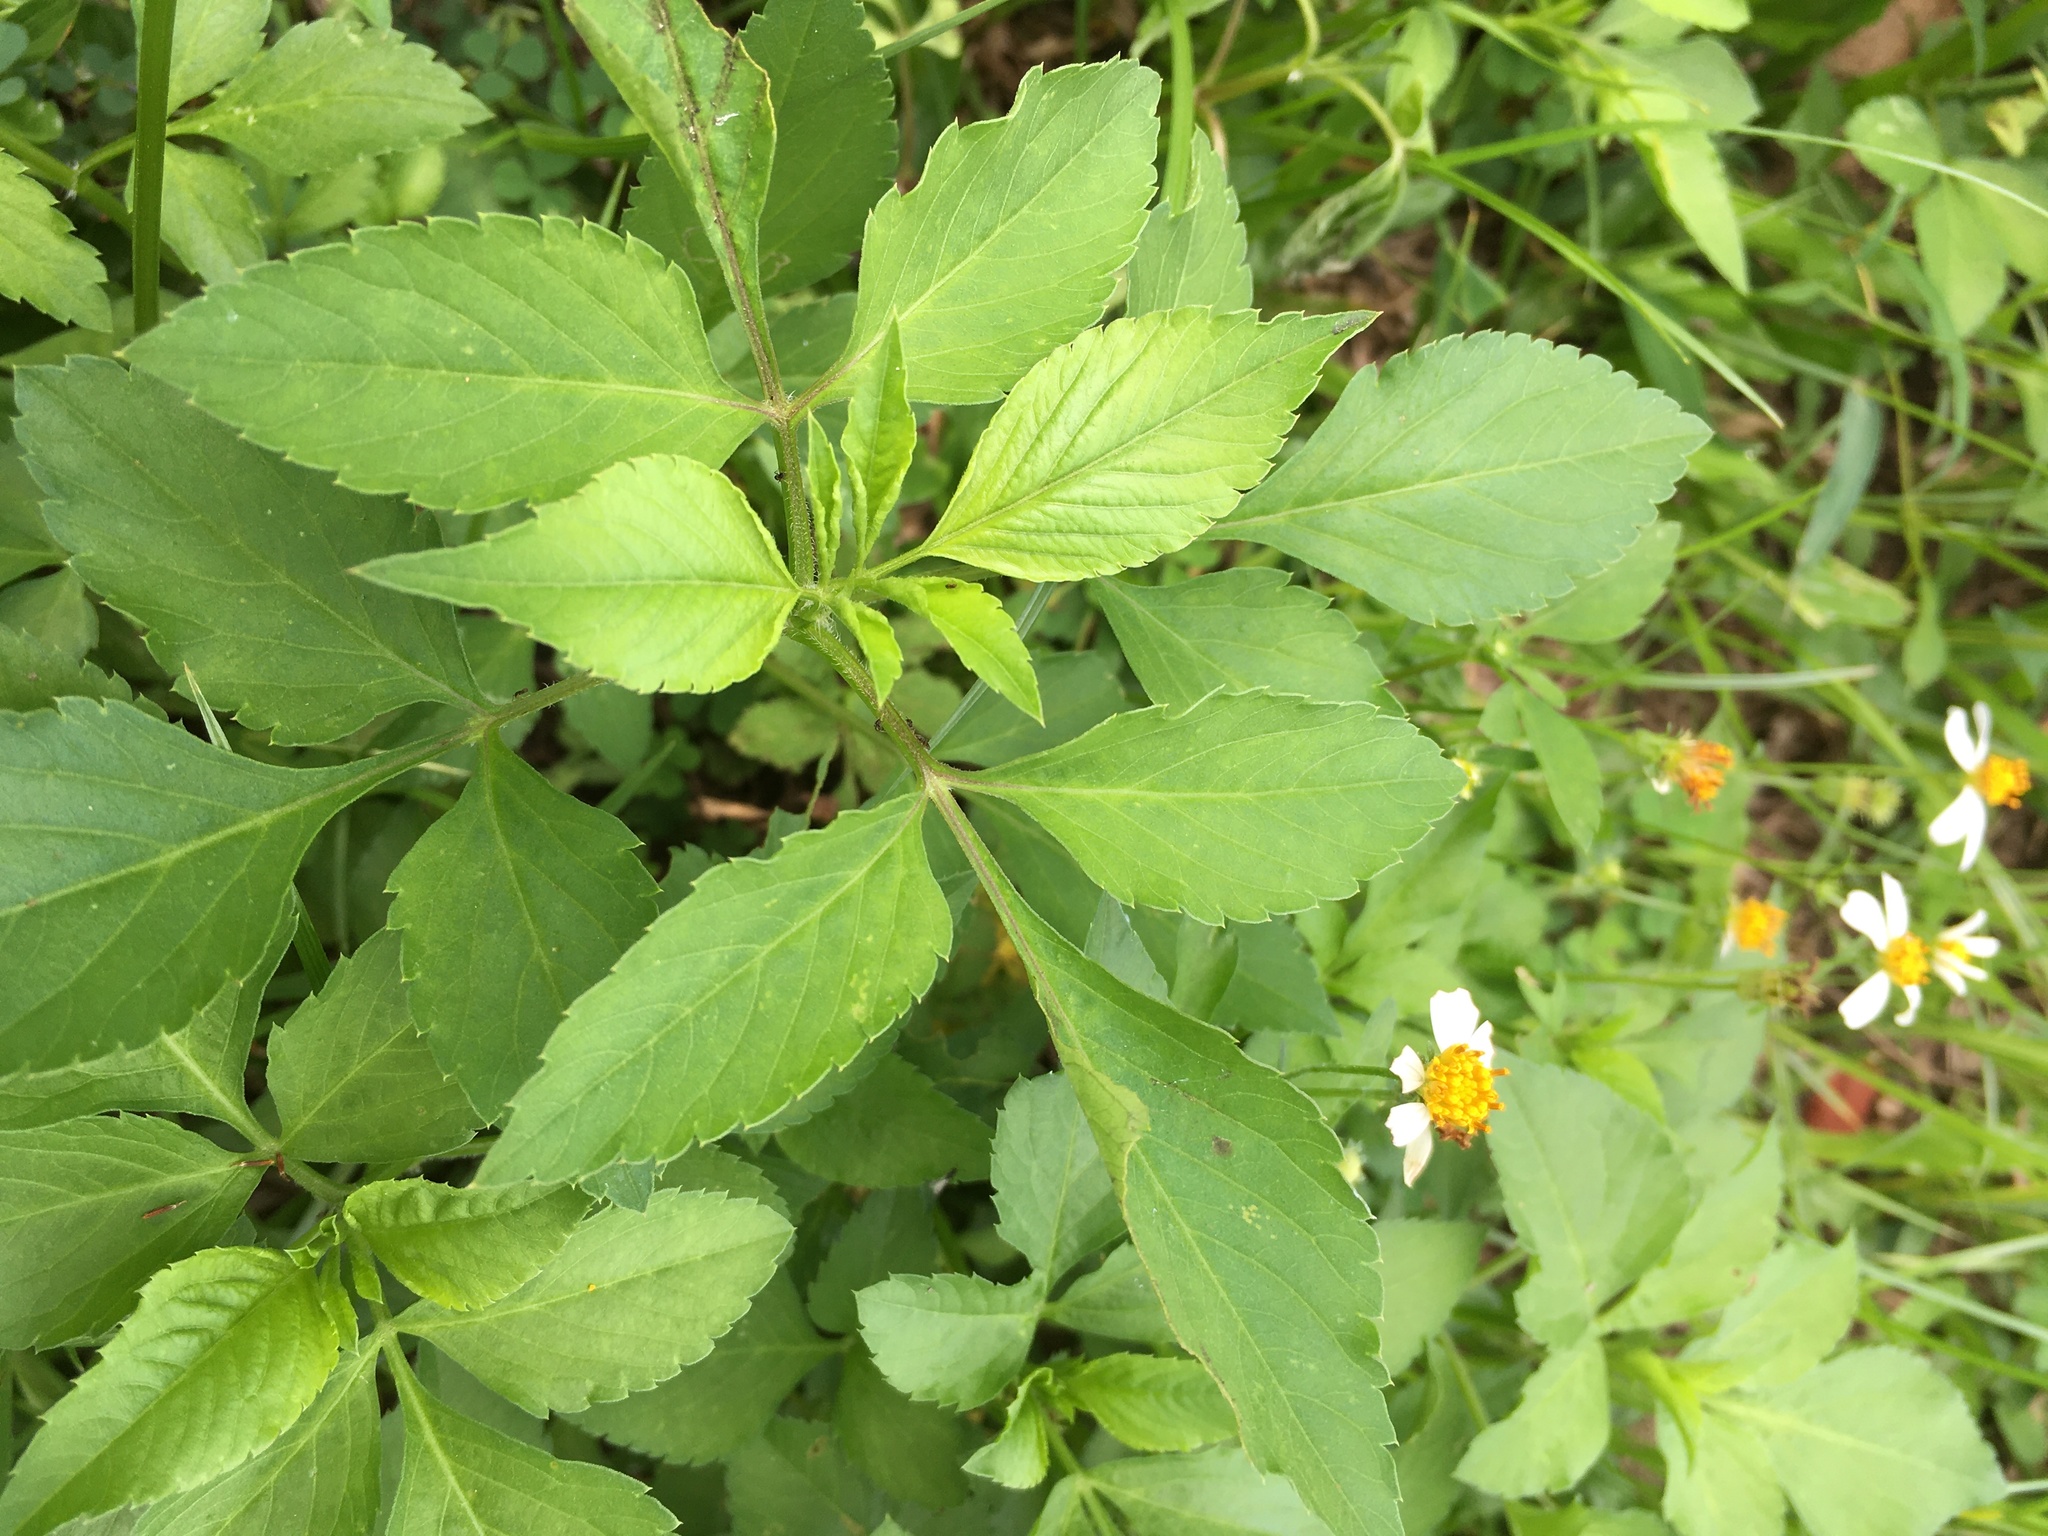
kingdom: Plantae
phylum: Tracheophyta
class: Magnoliopsida
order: Asterales
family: Asteraceae
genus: Bidens
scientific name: Bidens alba
